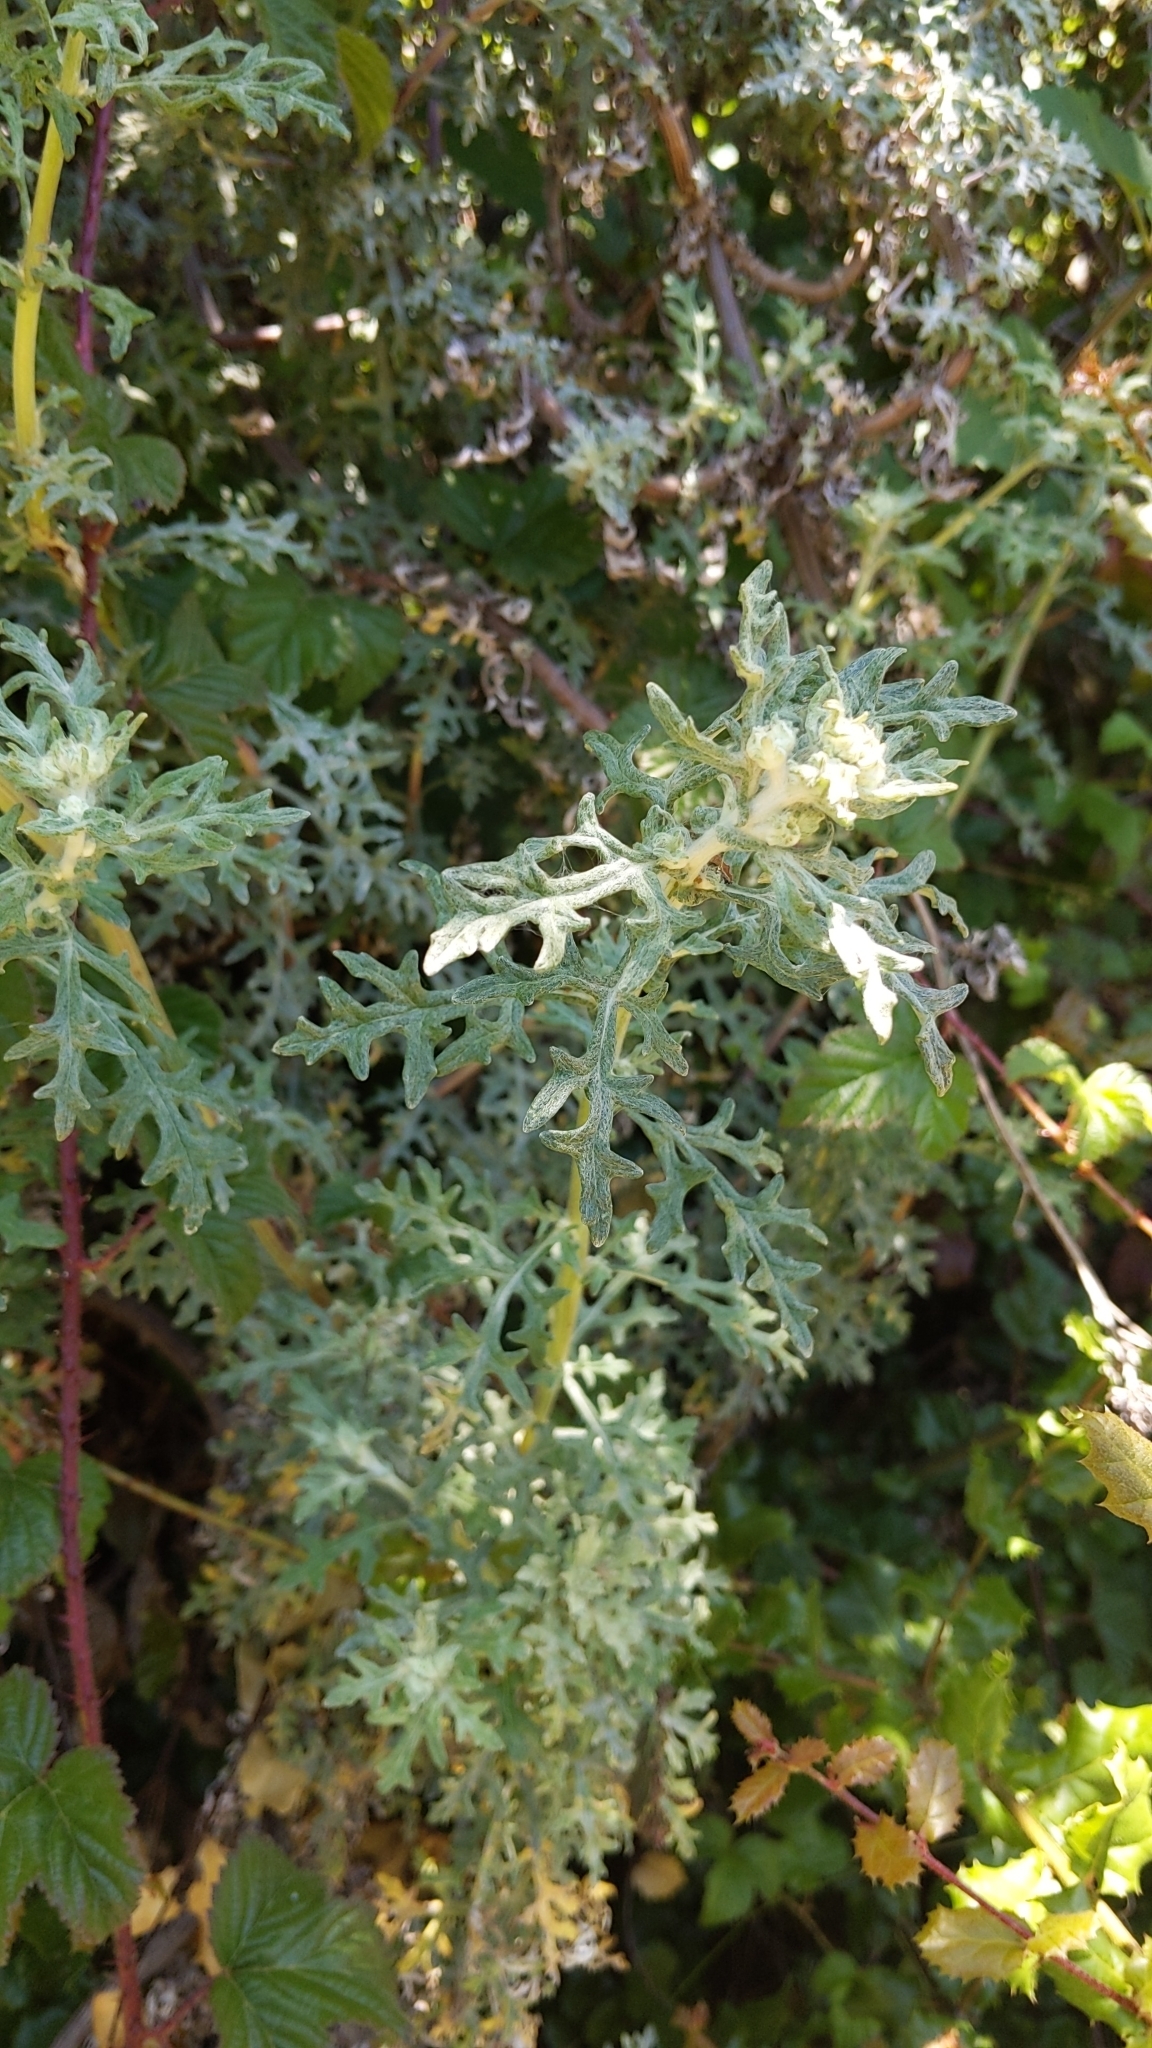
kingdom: Plantae
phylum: Tracheophyta
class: Magnoliopsida
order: Asterales
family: Asteraceae
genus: Eriophyllum
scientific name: Eriophyllum staechadifolium
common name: Lizardtail
